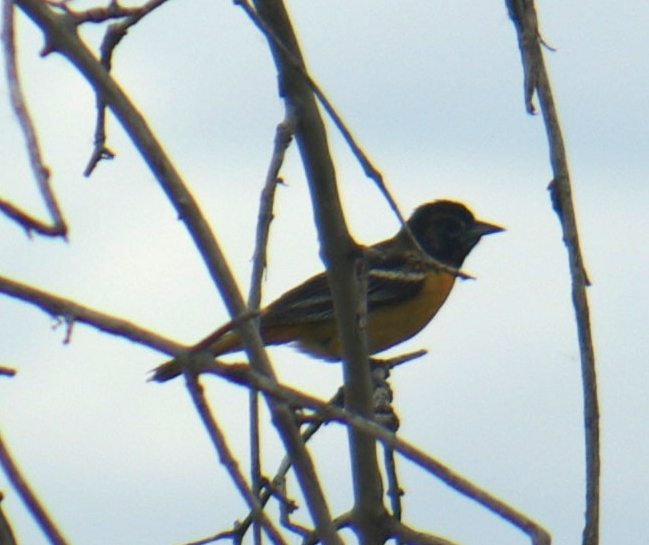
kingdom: Animalia
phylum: Chordata
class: Aves
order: Passeriformes
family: Icteridae
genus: Icterus
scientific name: Icterus galbula
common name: Baltimore oriole
